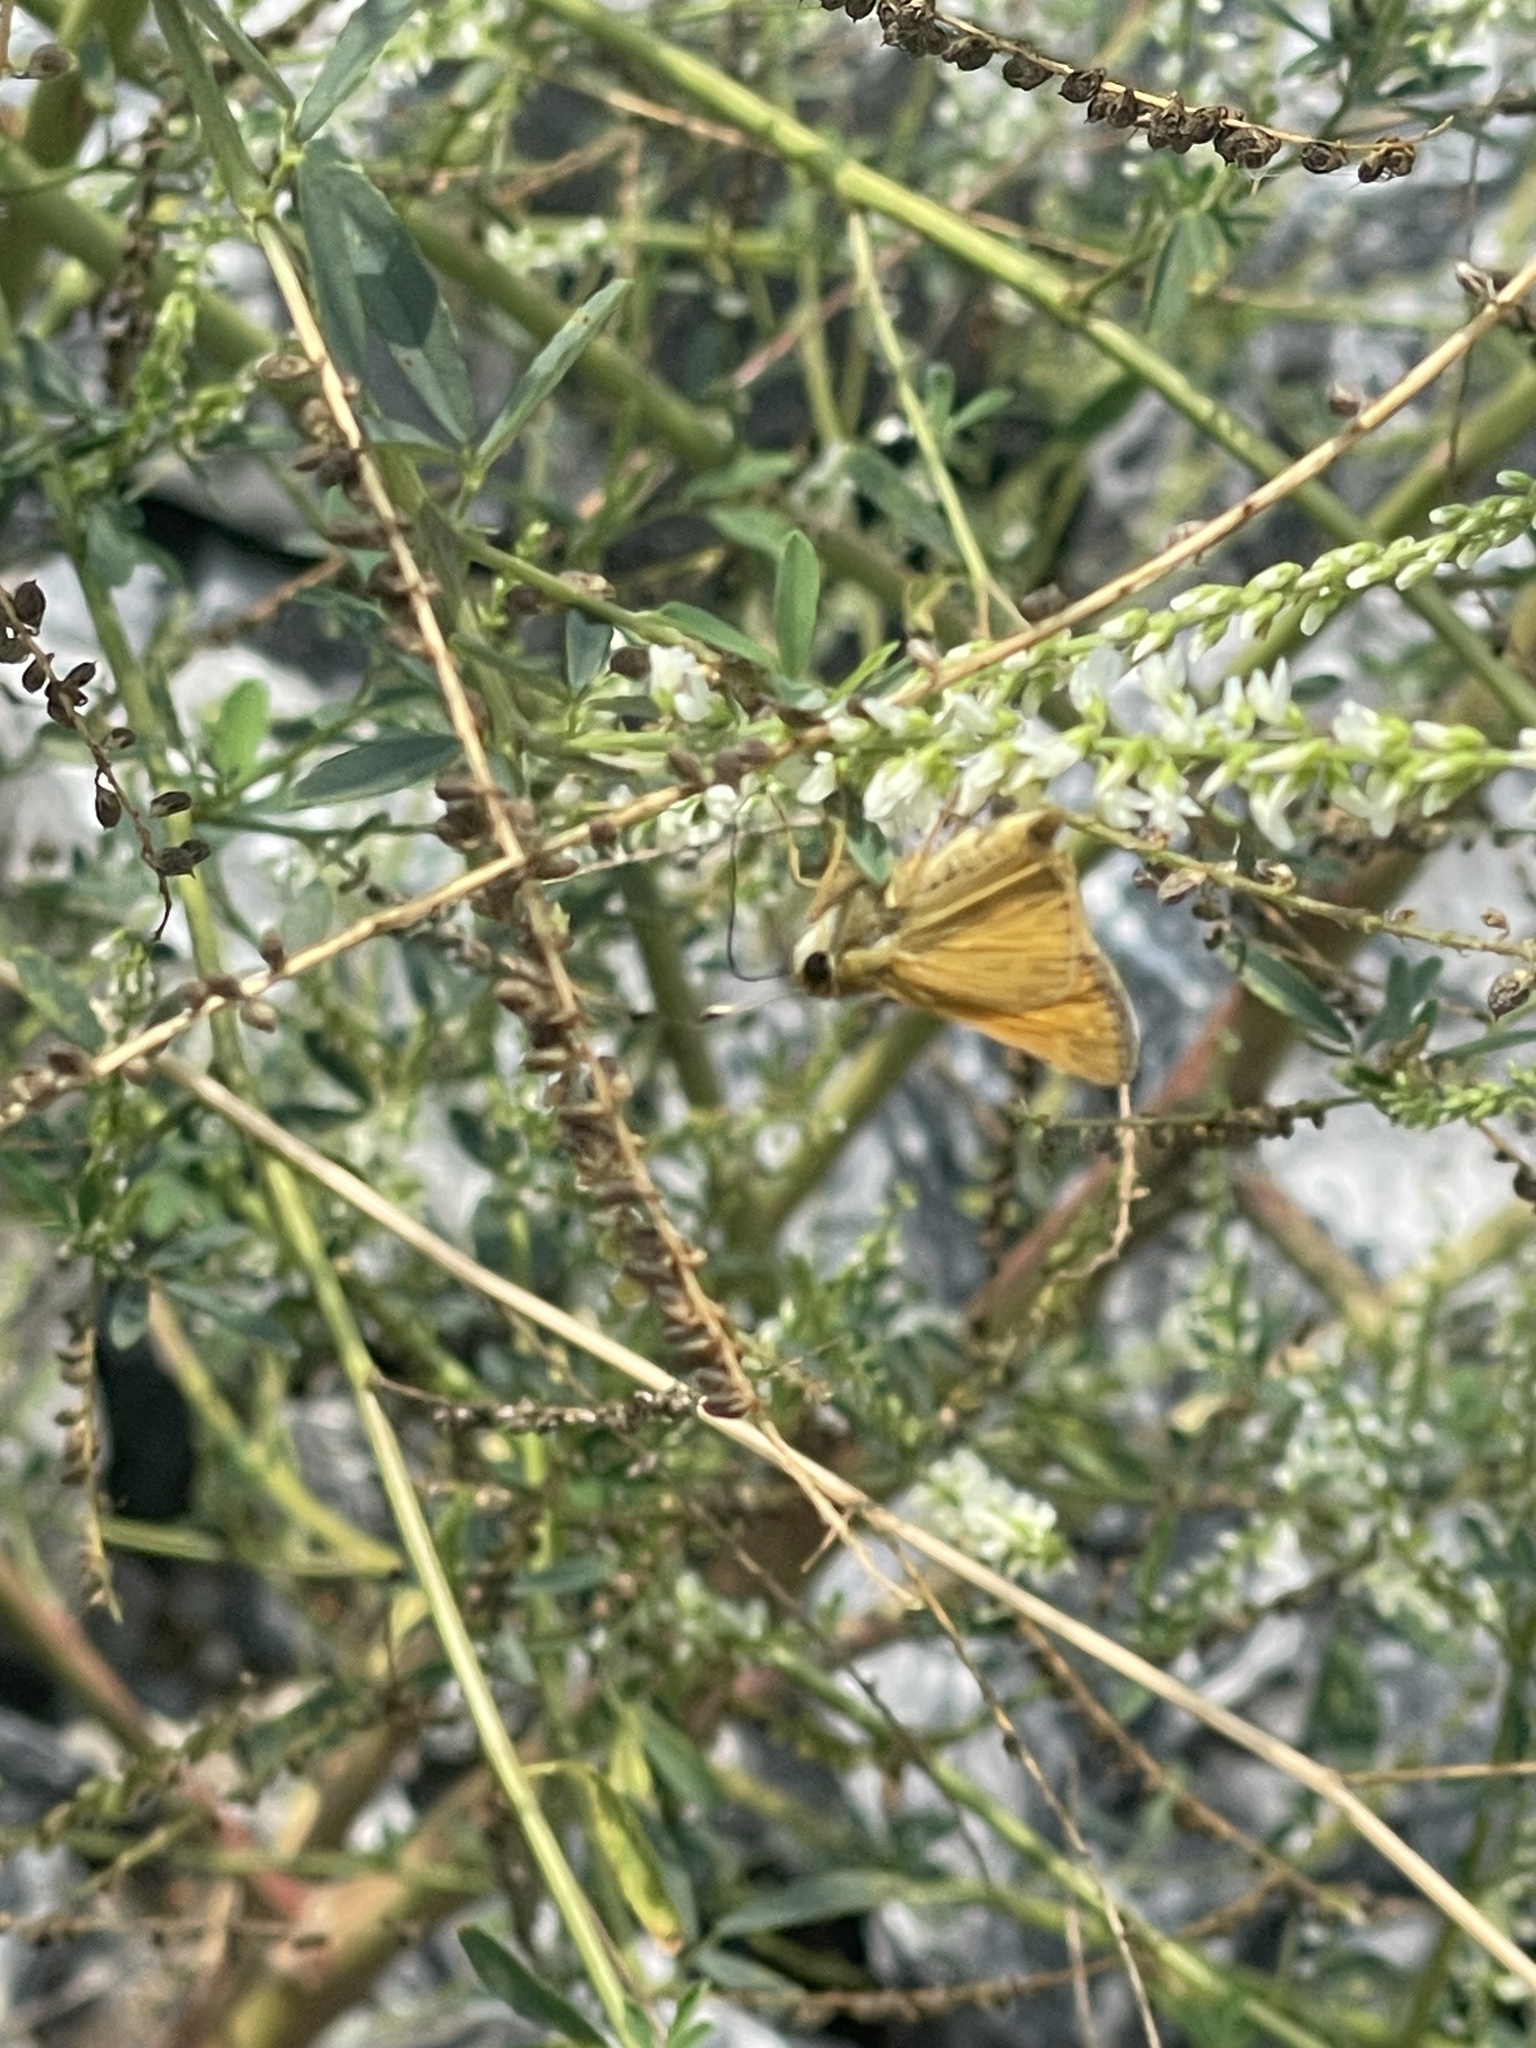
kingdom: Animalia
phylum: Arthropoda
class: Insecta
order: Lepidoptera
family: Hesperiidae
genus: Atalopedes
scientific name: Atalopedes
